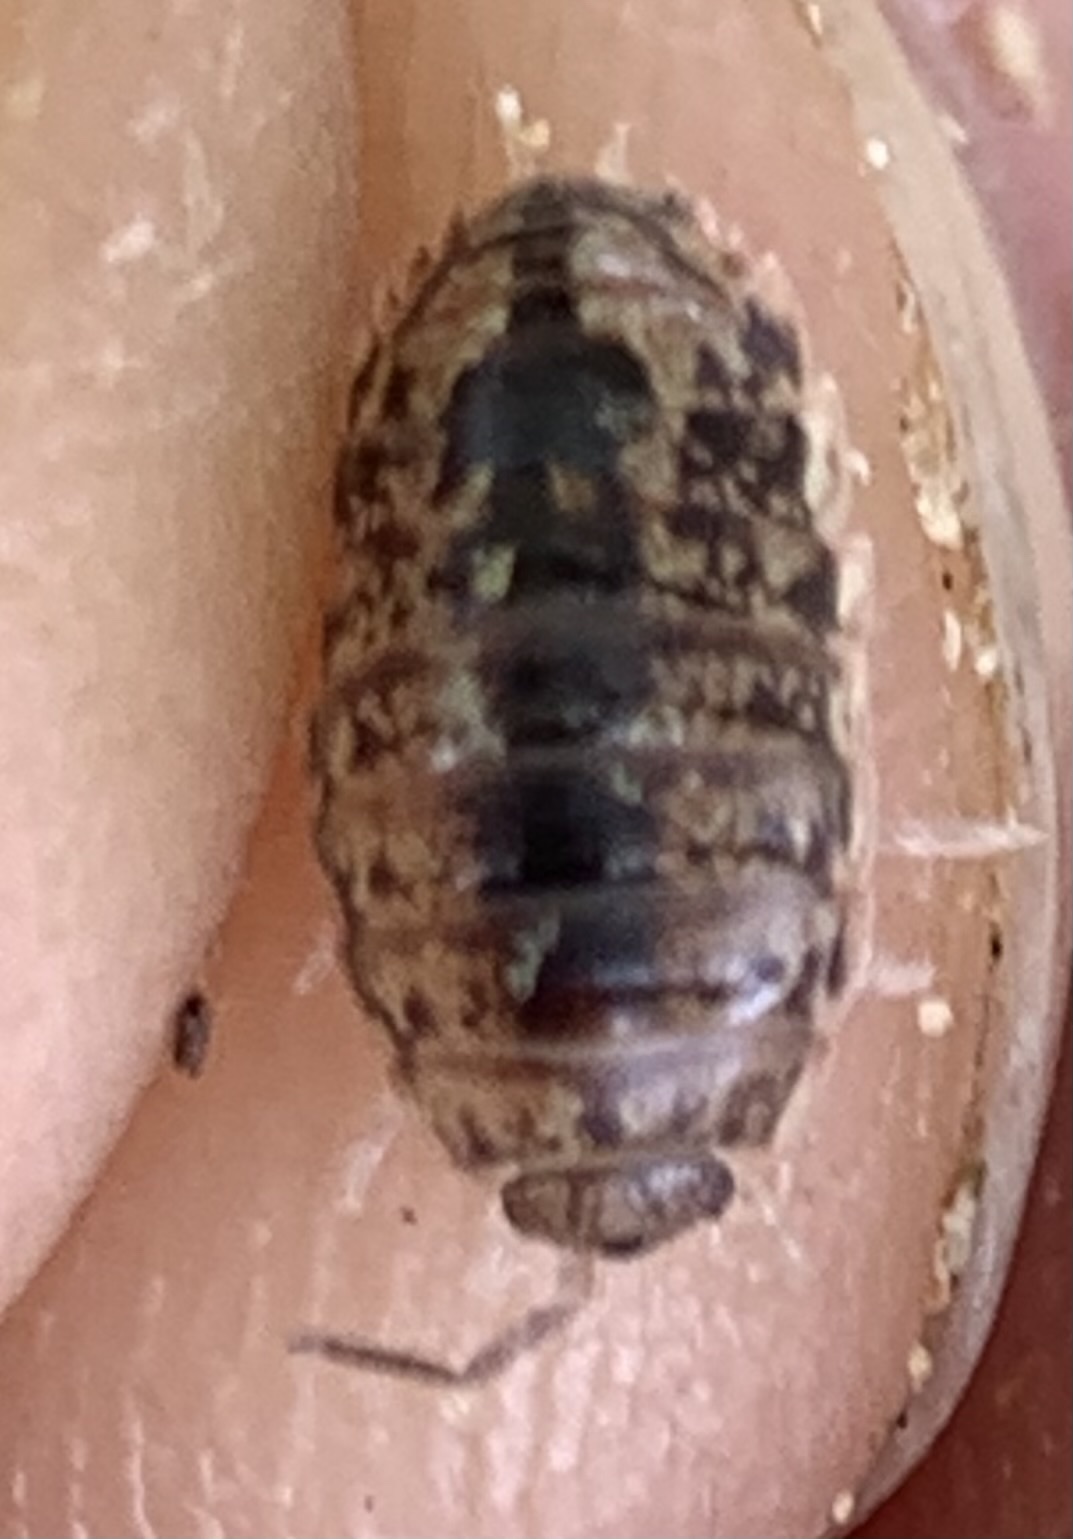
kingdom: Animalia
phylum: Arthropoda
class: Malacostraca
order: Isopoda
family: Alloniscidae
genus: Alloniscus
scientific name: Alloniscus oahuensis
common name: Pillbug
